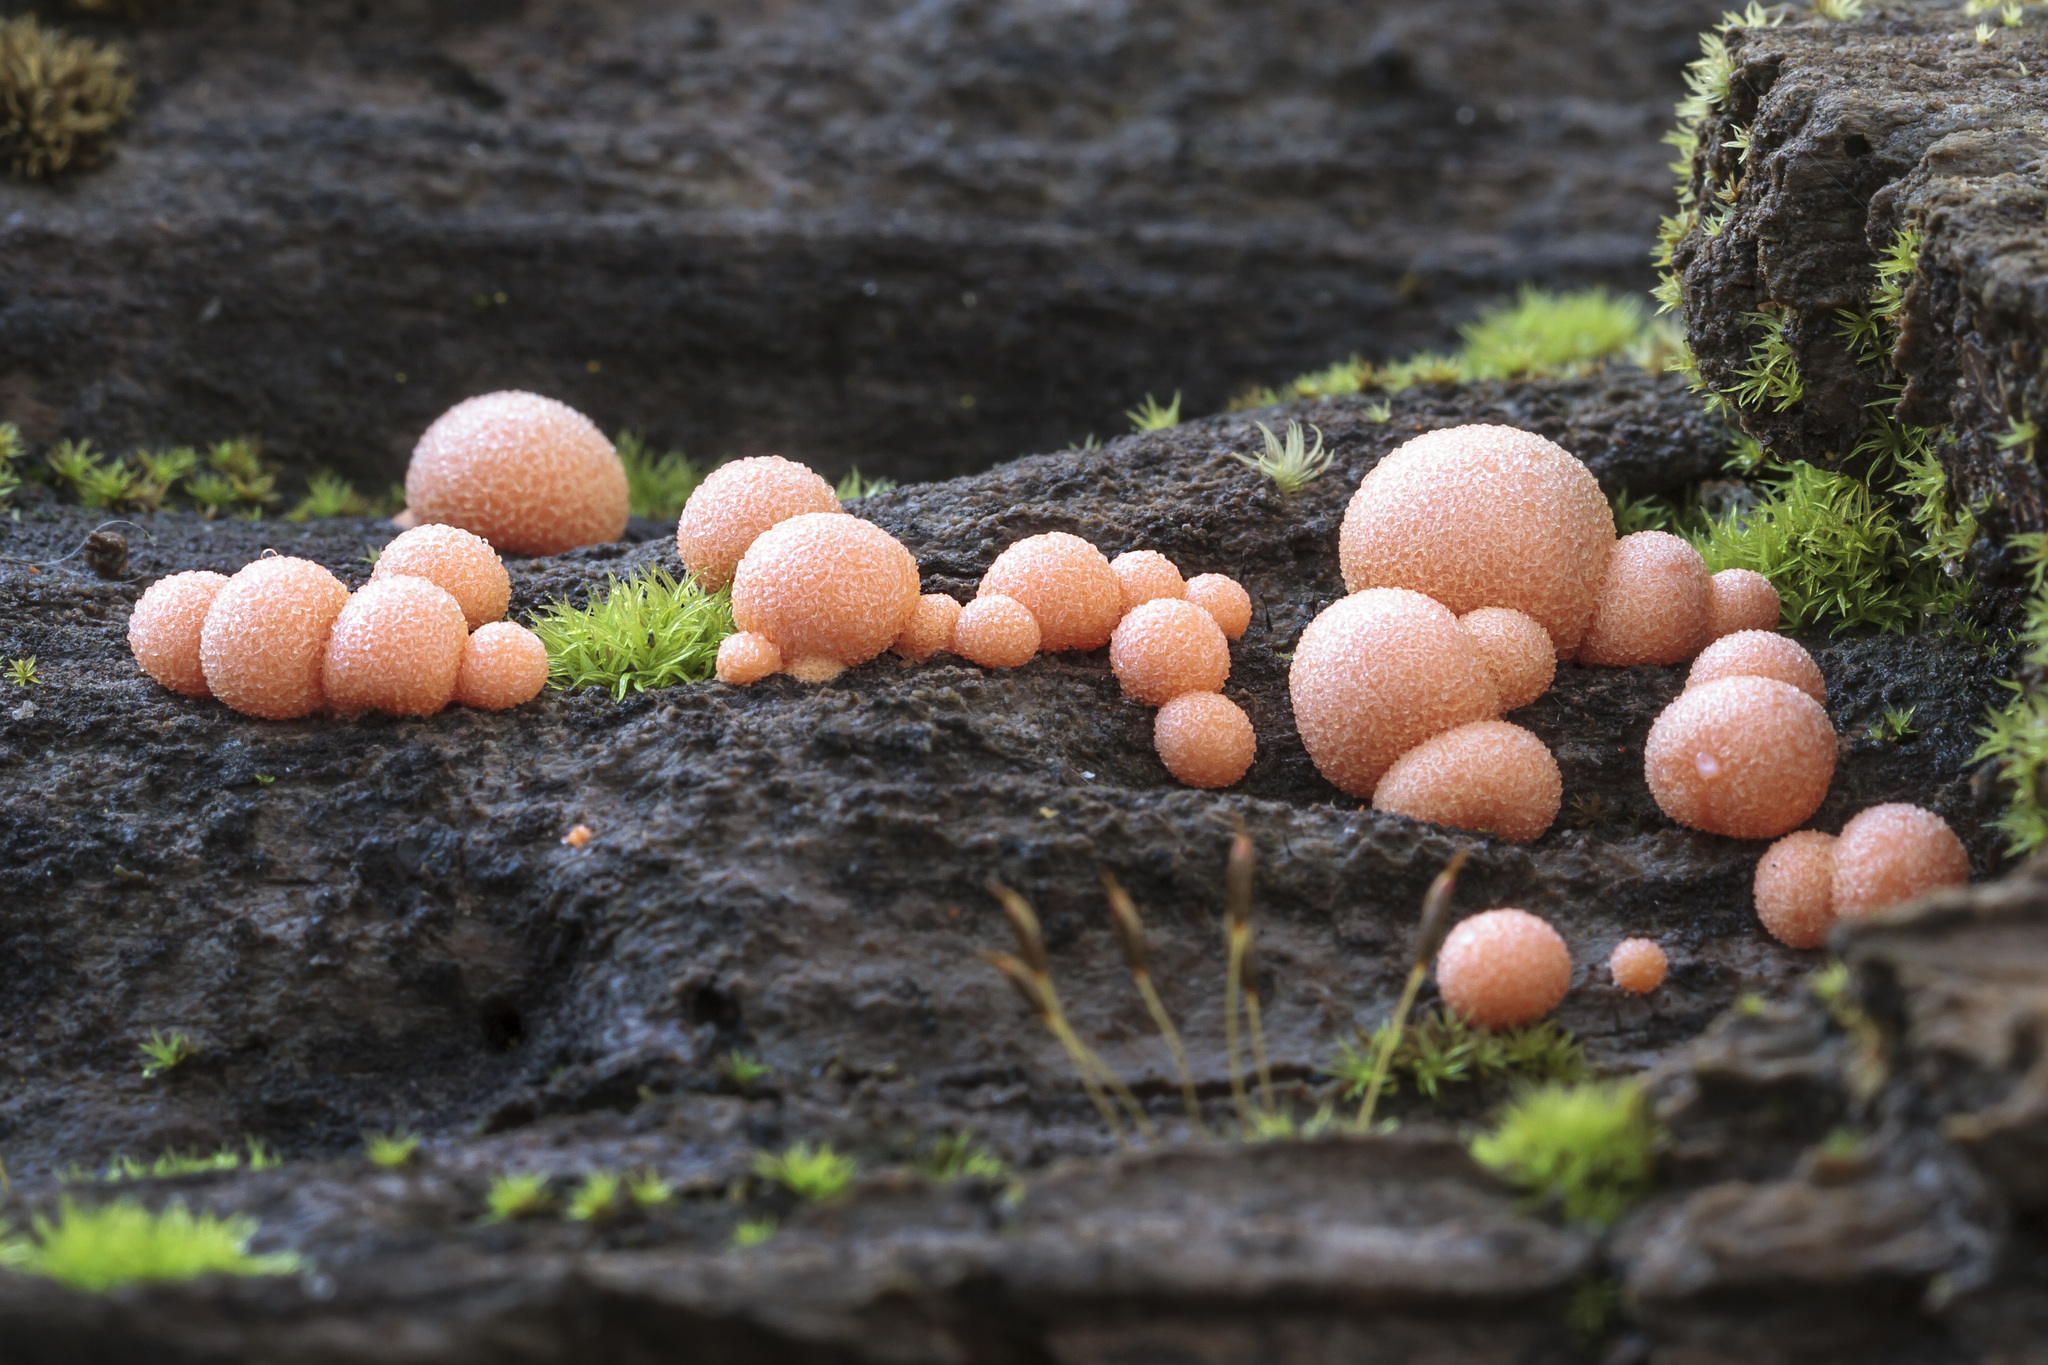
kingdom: Protozoa
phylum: Mycetozoa
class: Myxomycetes
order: Cribrariales
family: Tubiferaceae
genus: Lycogala
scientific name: Lycogala epidendrum
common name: Wolf's milk
